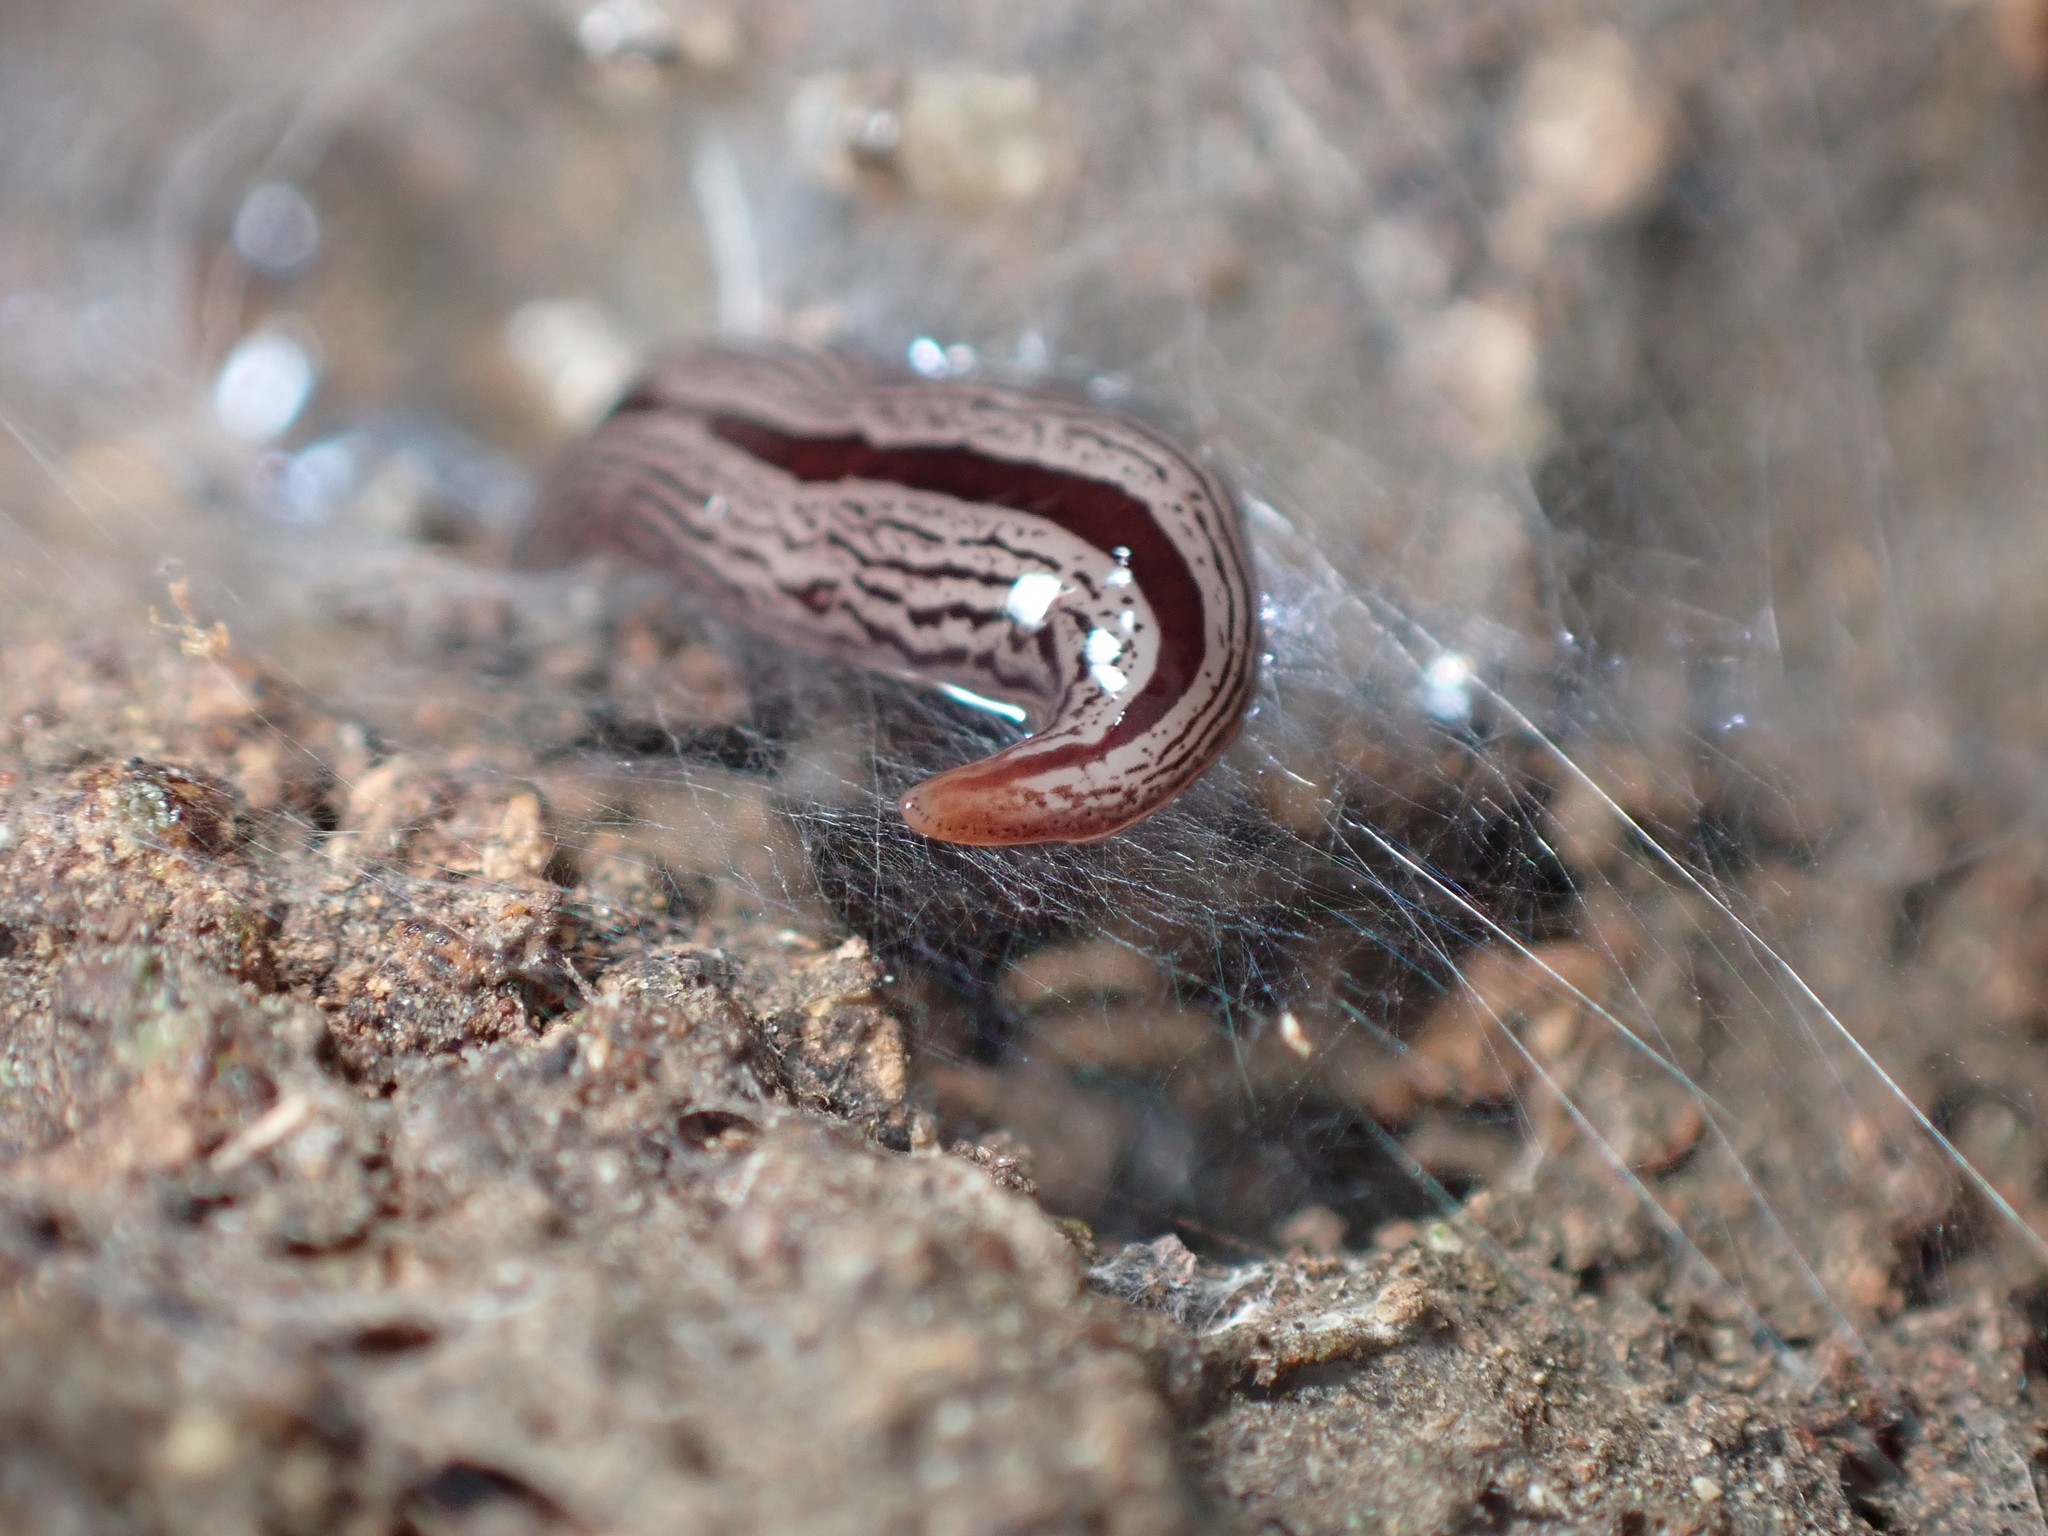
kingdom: Animalia
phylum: Platyhelminthes
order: Tricladida
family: Geoplanidae
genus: Artioposthia
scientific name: Artioposthia exulans
